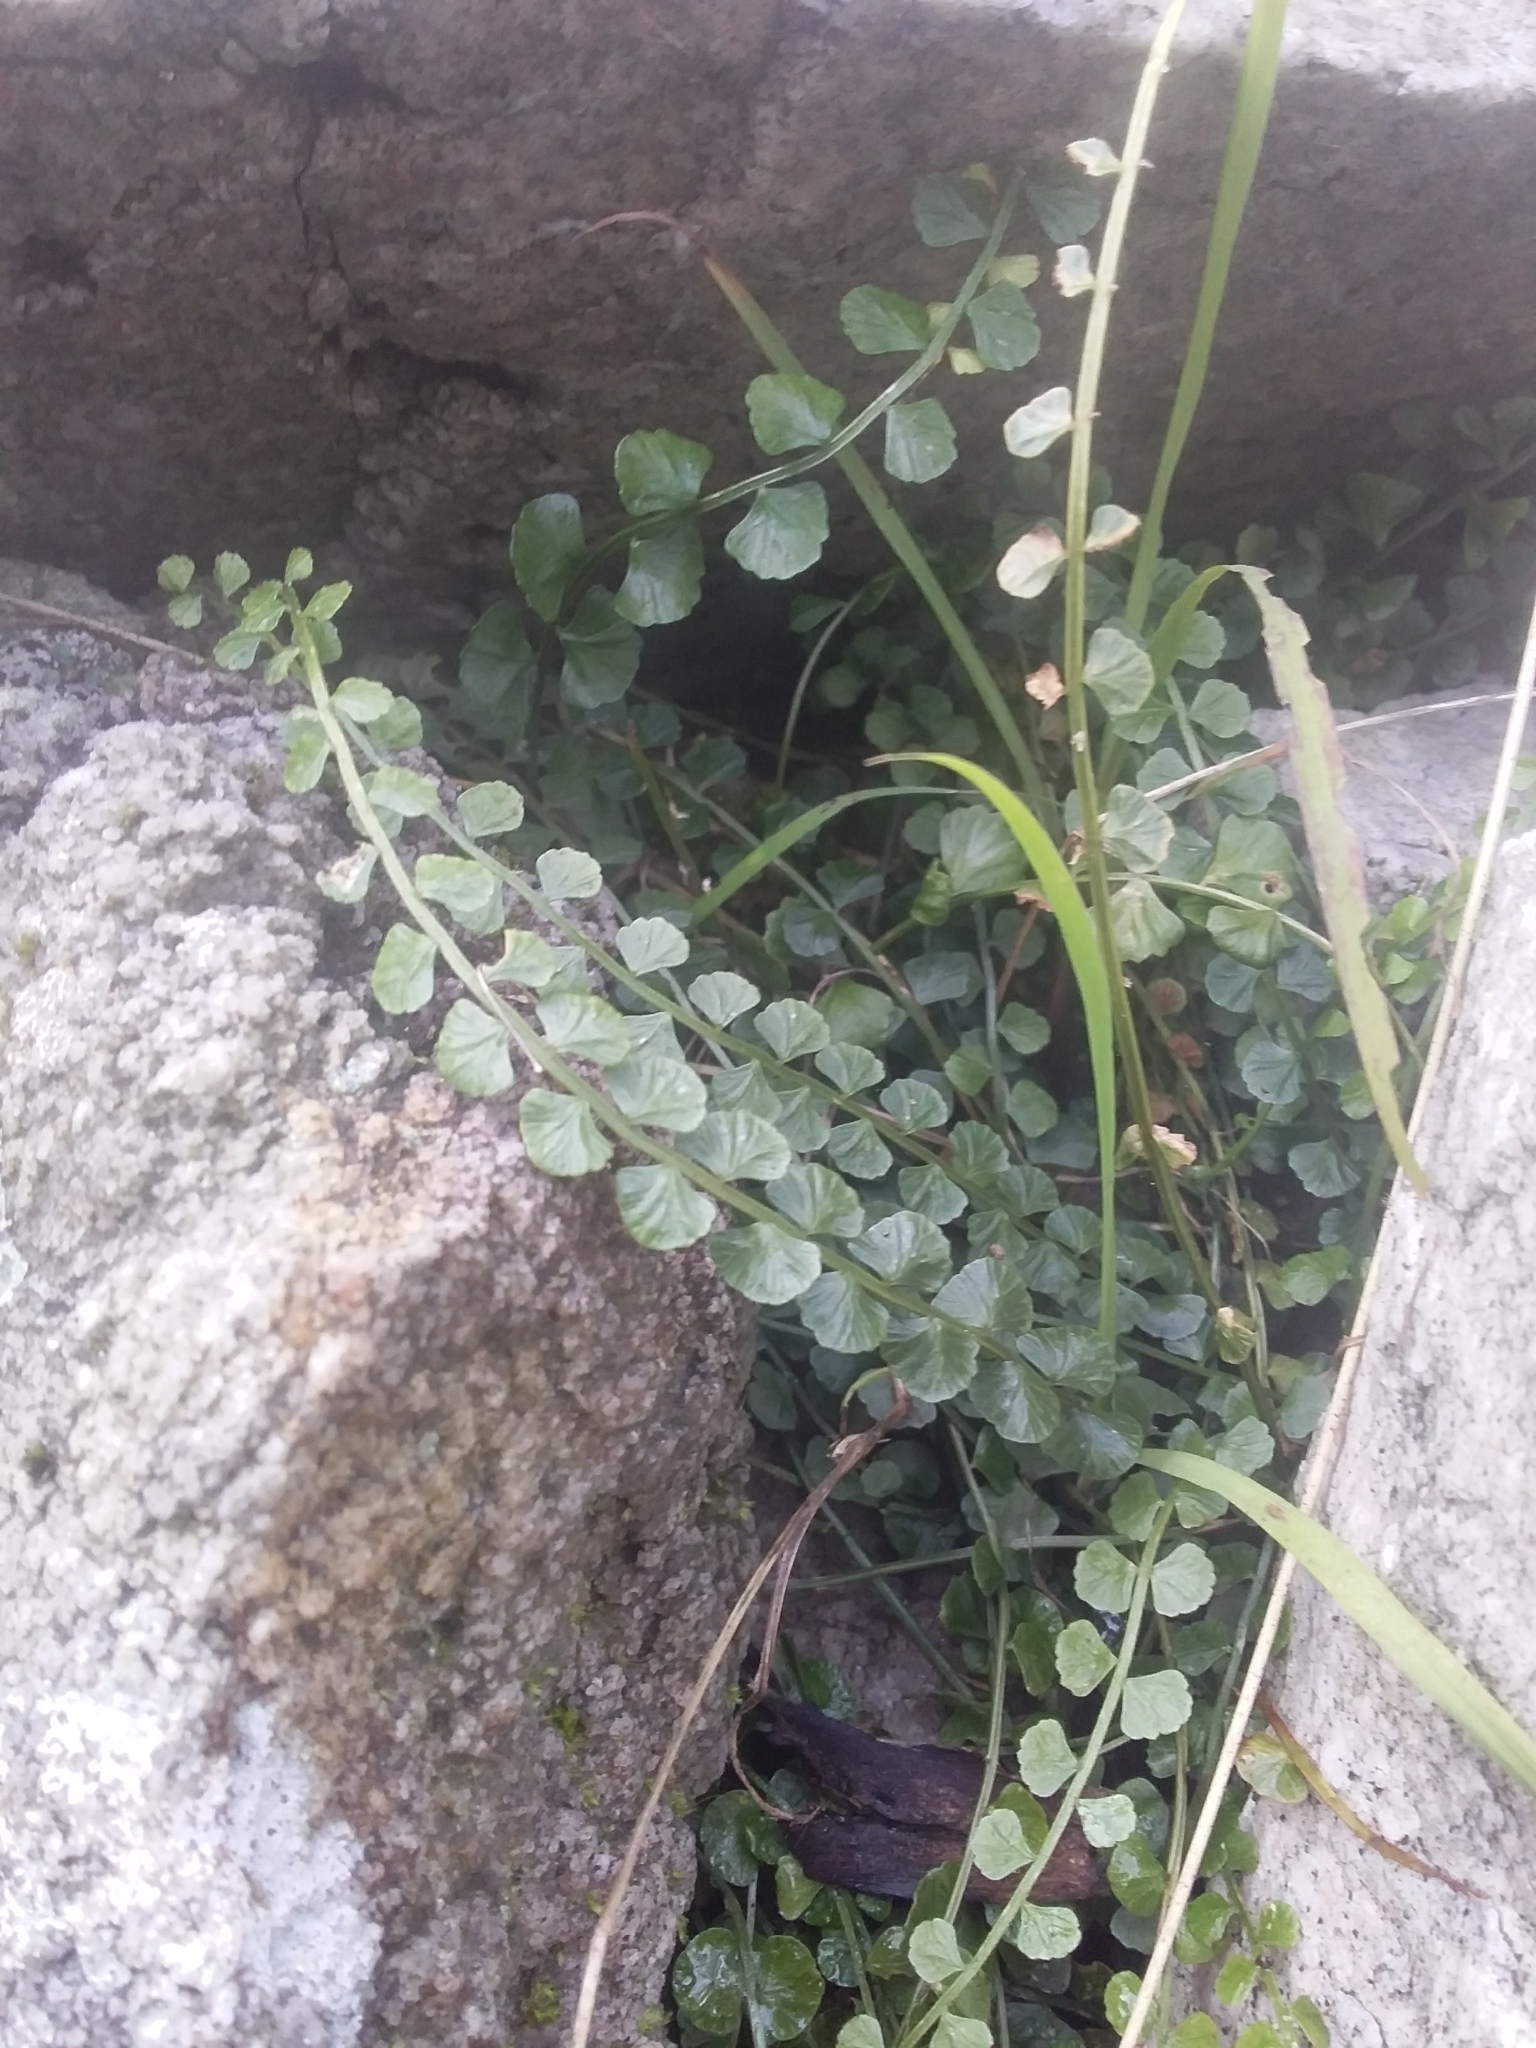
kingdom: Plantae
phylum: Tracheophyta
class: Polypodiopsida
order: Polypodiales
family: Aspleniaceae
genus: Asplenium
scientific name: Asplenium flabellifolium
